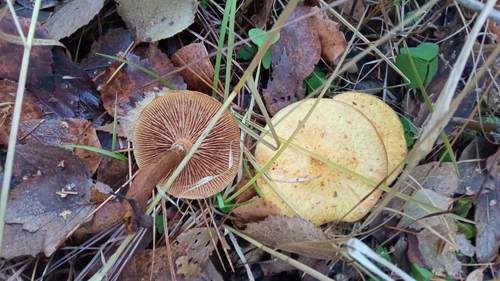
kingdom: Fungi
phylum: Basidiomycota
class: Agaricomycetes
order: Agaricales
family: Strophariaceae
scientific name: Strophariaceae
